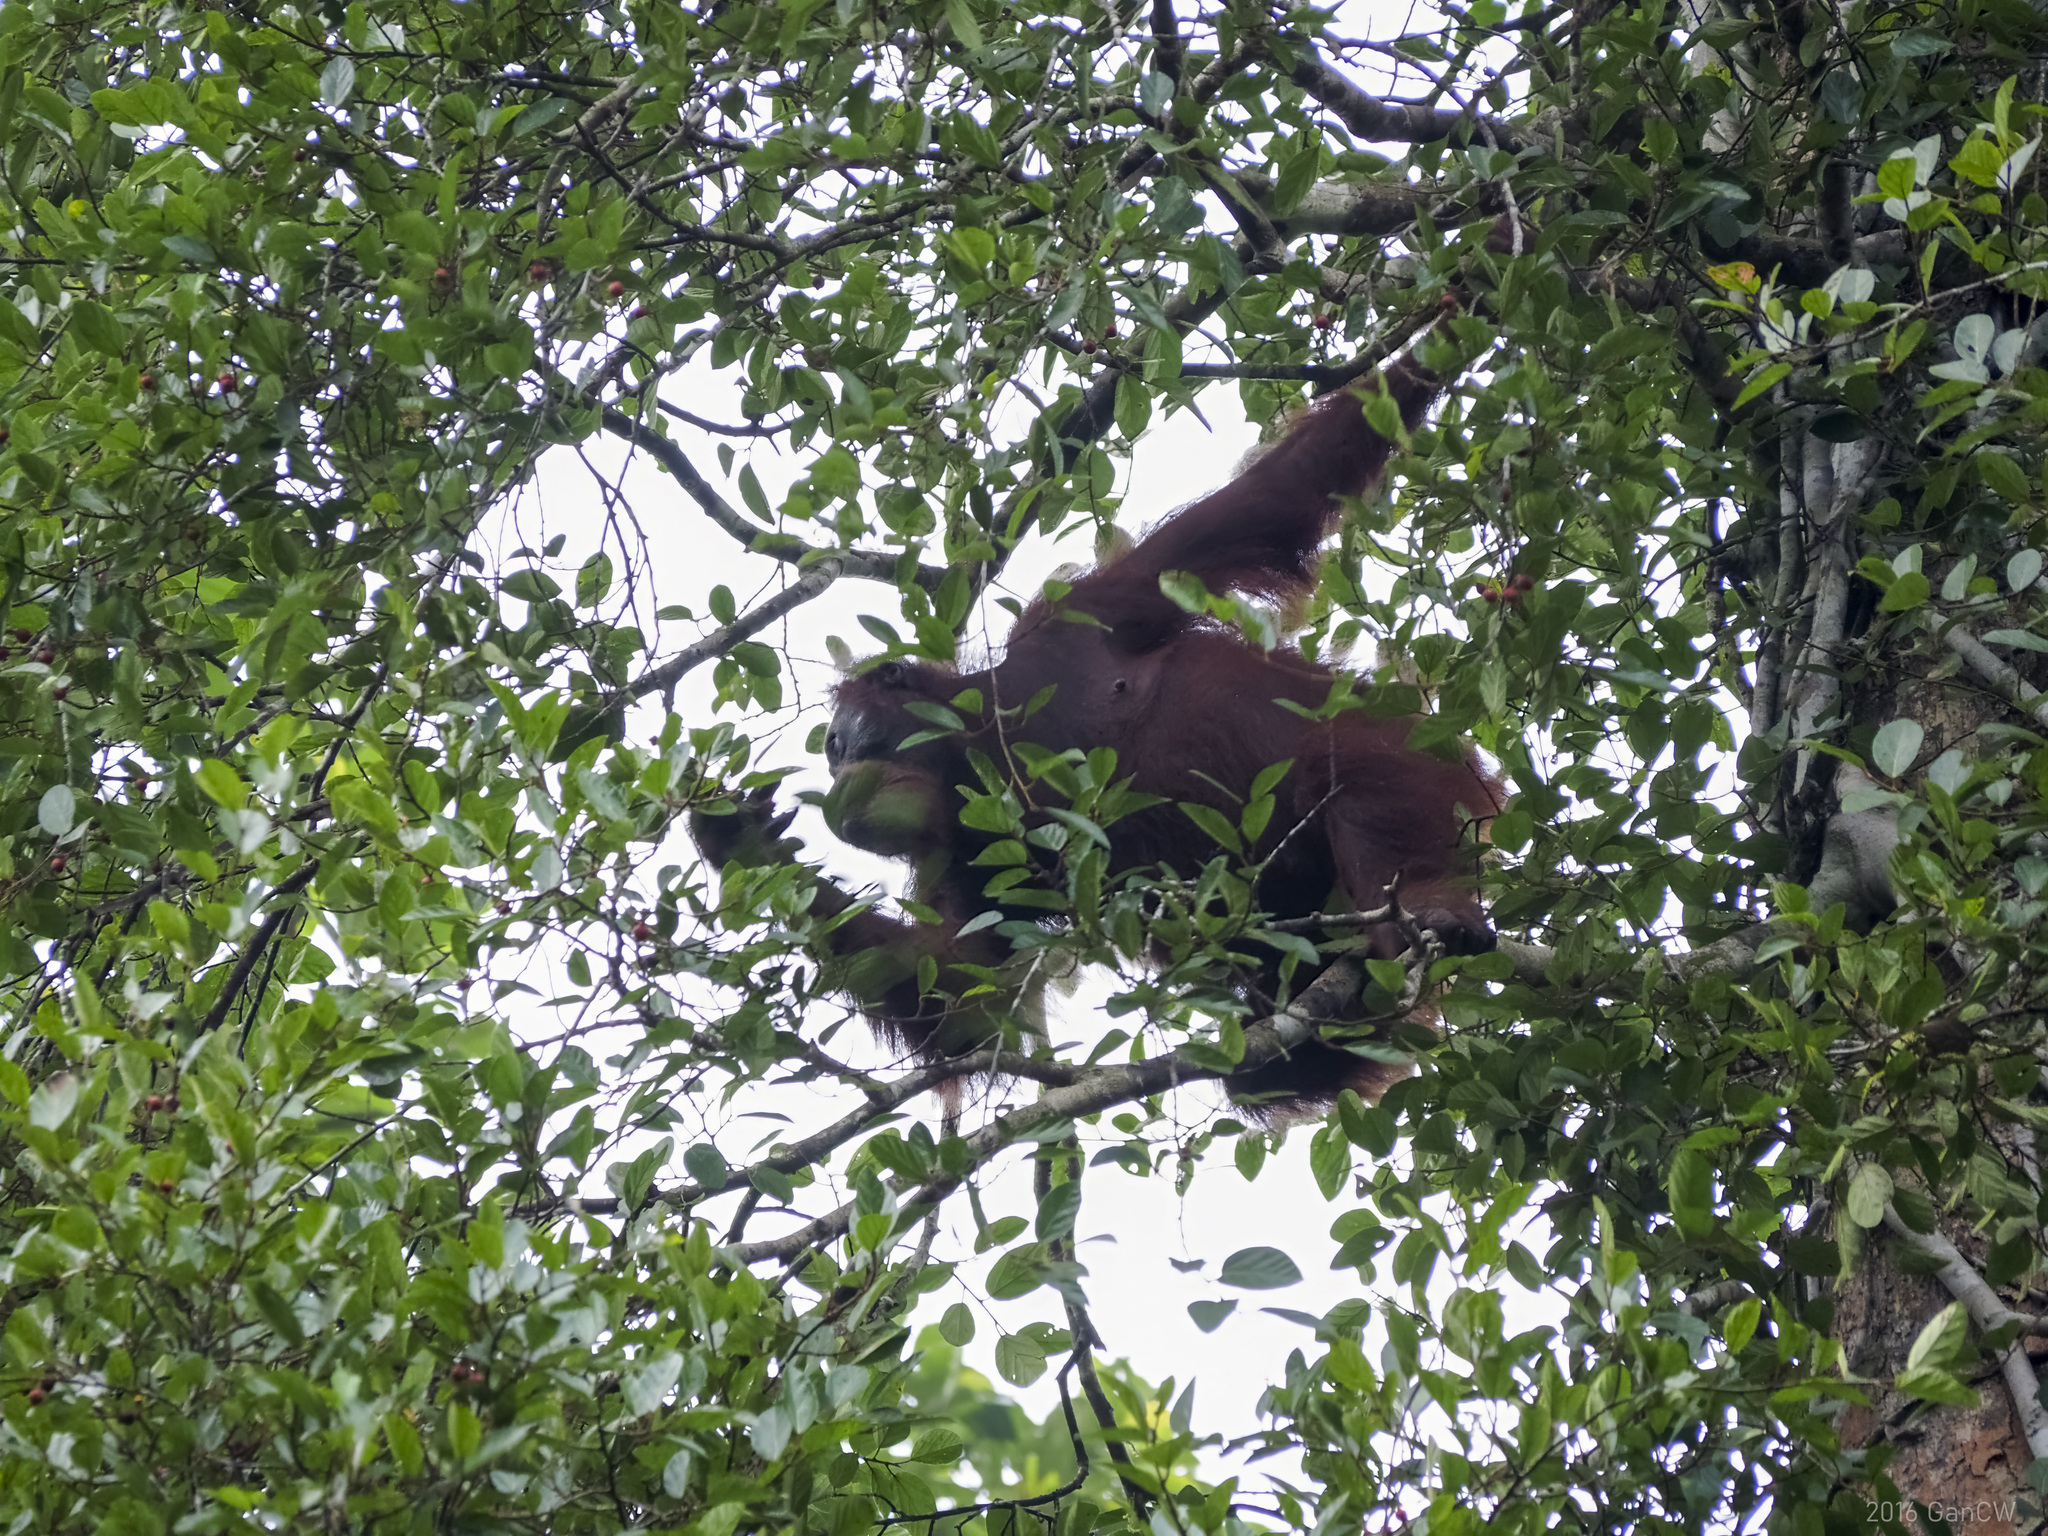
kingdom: Animalia
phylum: Chordata
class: Mammalia
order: Primates
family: Hominidae
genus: Pongo
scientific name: Pongo pygmaeus
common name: Bornean orangutan
